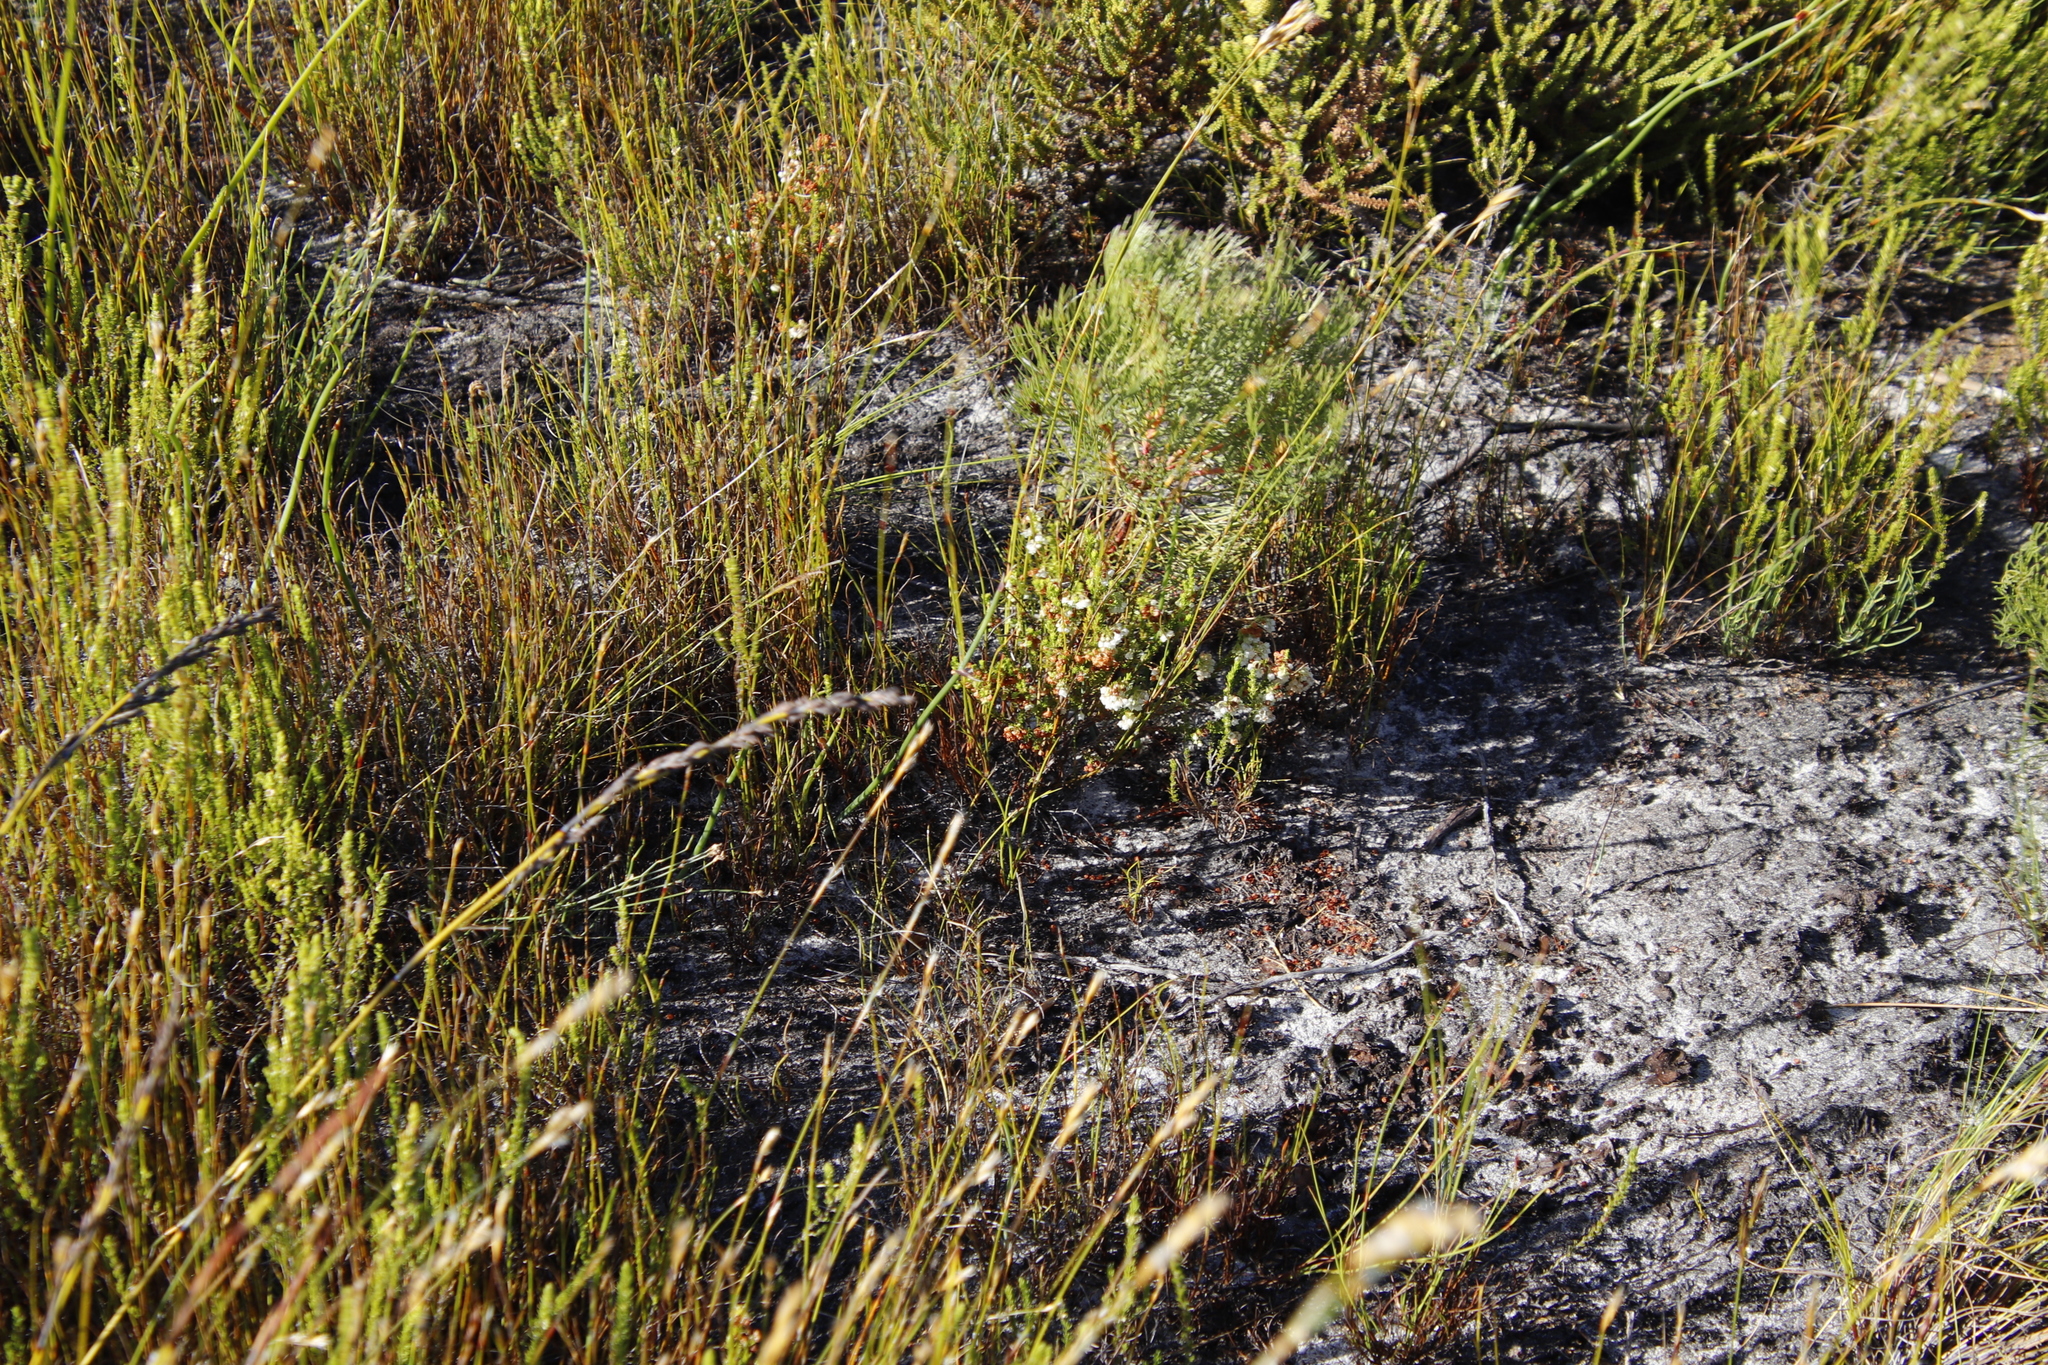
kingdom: Plantae
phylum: Tracheophyta
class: Magnoliopsida
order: Proteales
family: Proteaceae
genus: Serruria
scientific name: Serruria glomerata
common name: Cluster spiderhead
